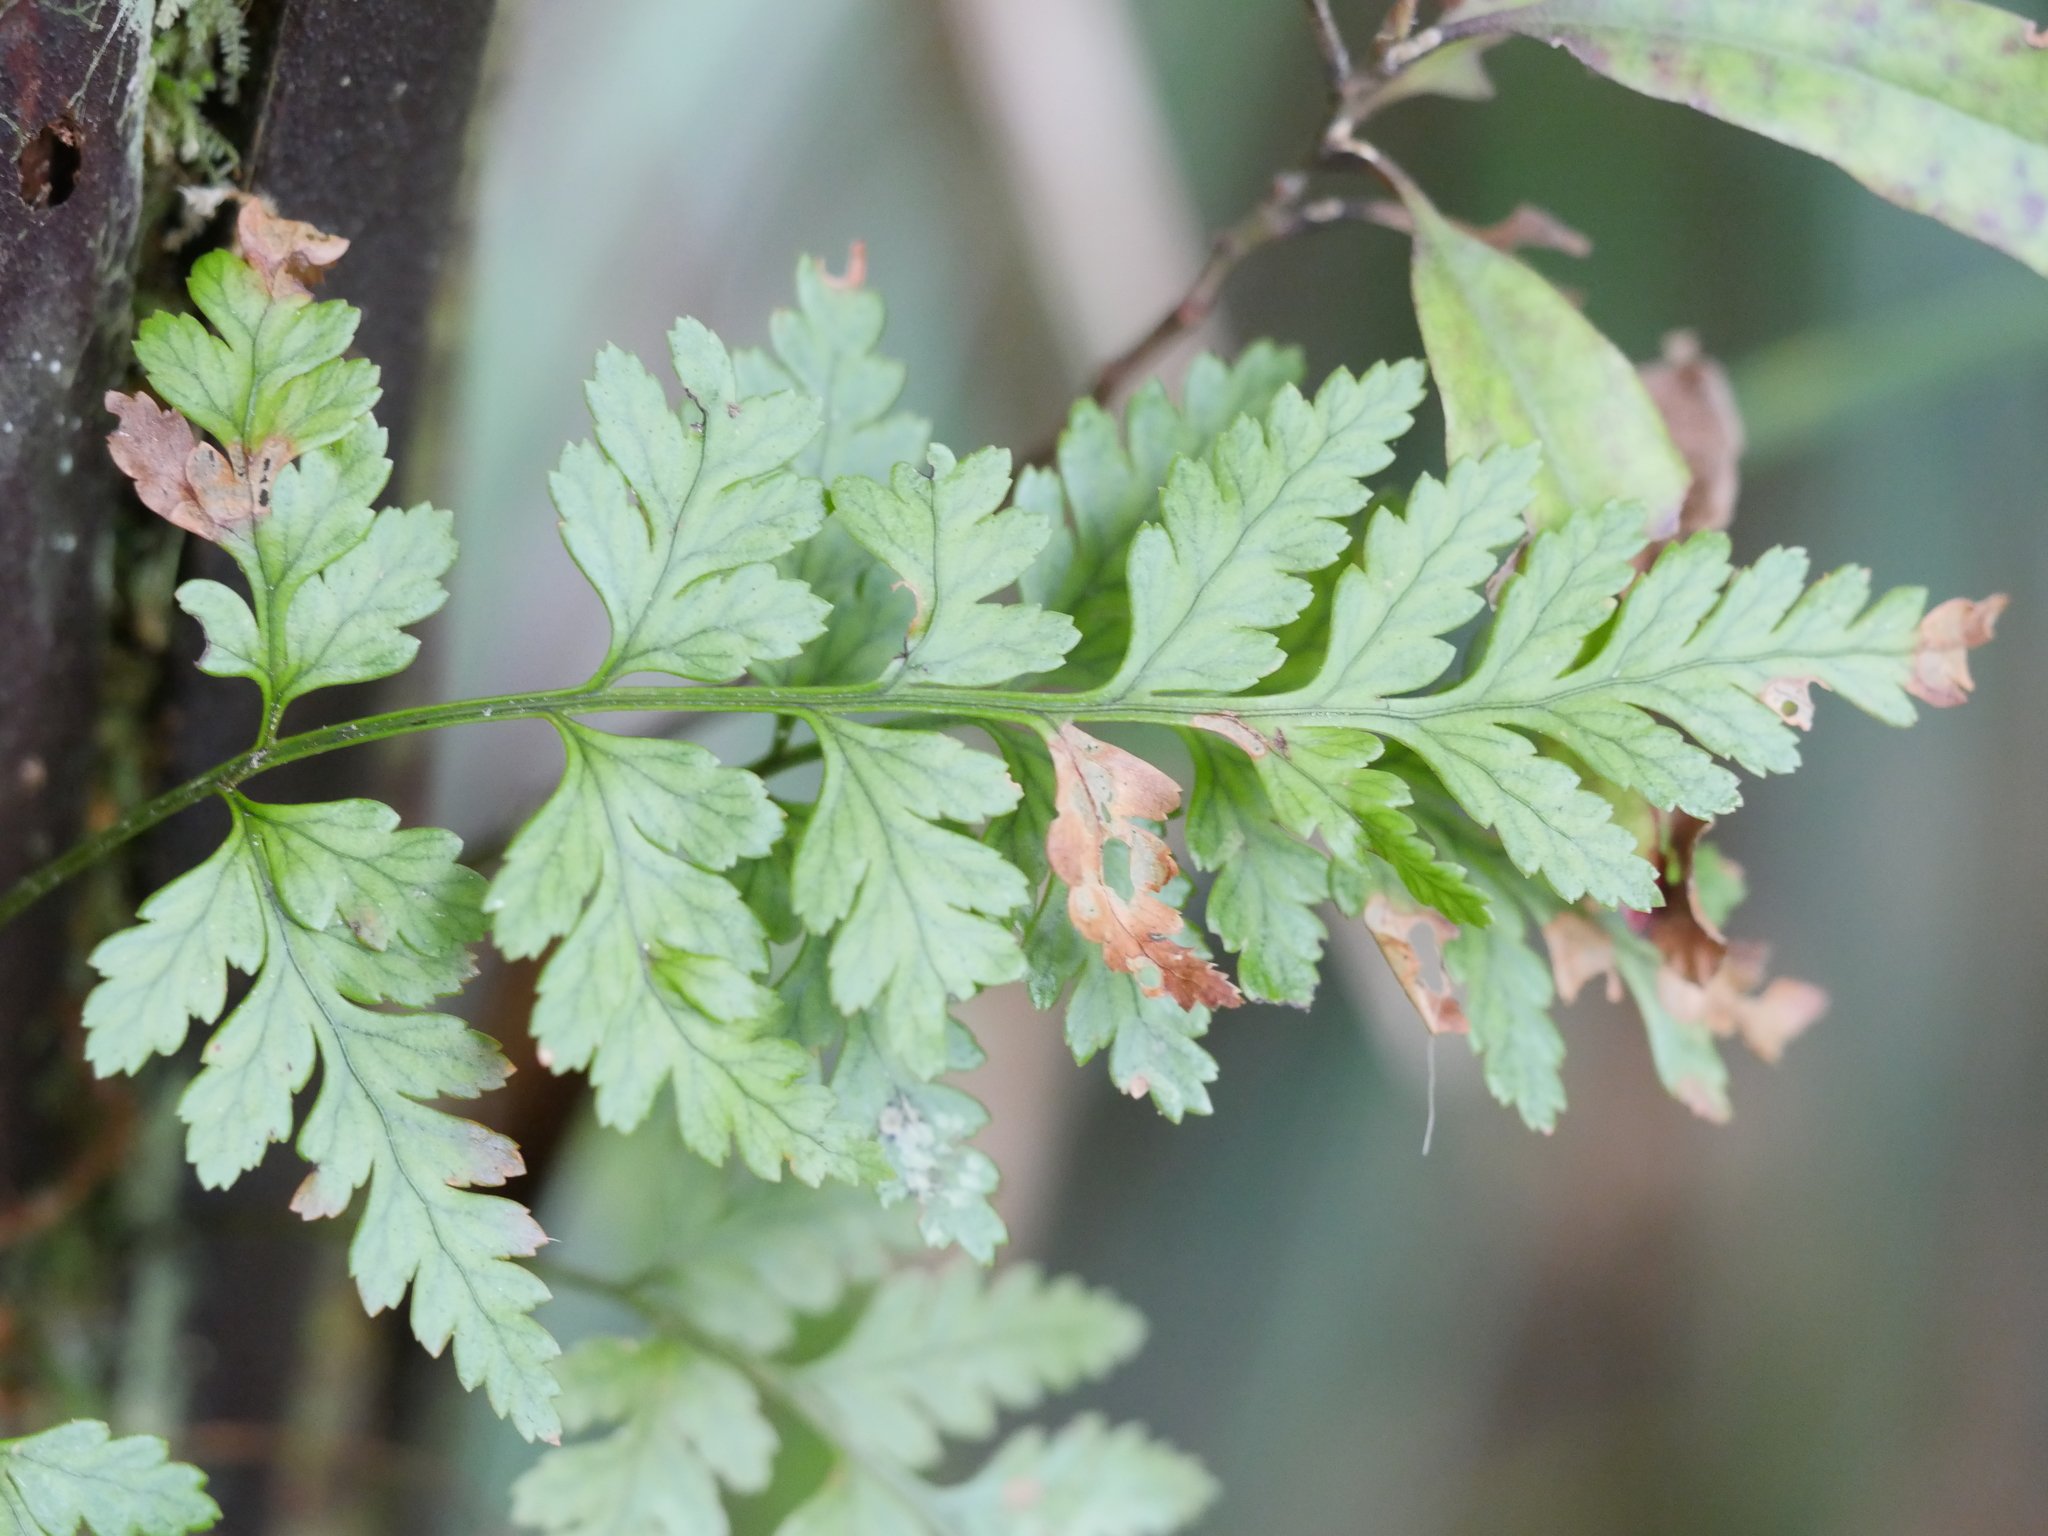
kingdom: Plantae
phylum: Tracheophyta
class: Polypodiopsida
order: Polypodiales
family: Dryopteridaceae
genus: Rumohra
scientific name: Rumohra adiantiformis
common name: Leather fern
